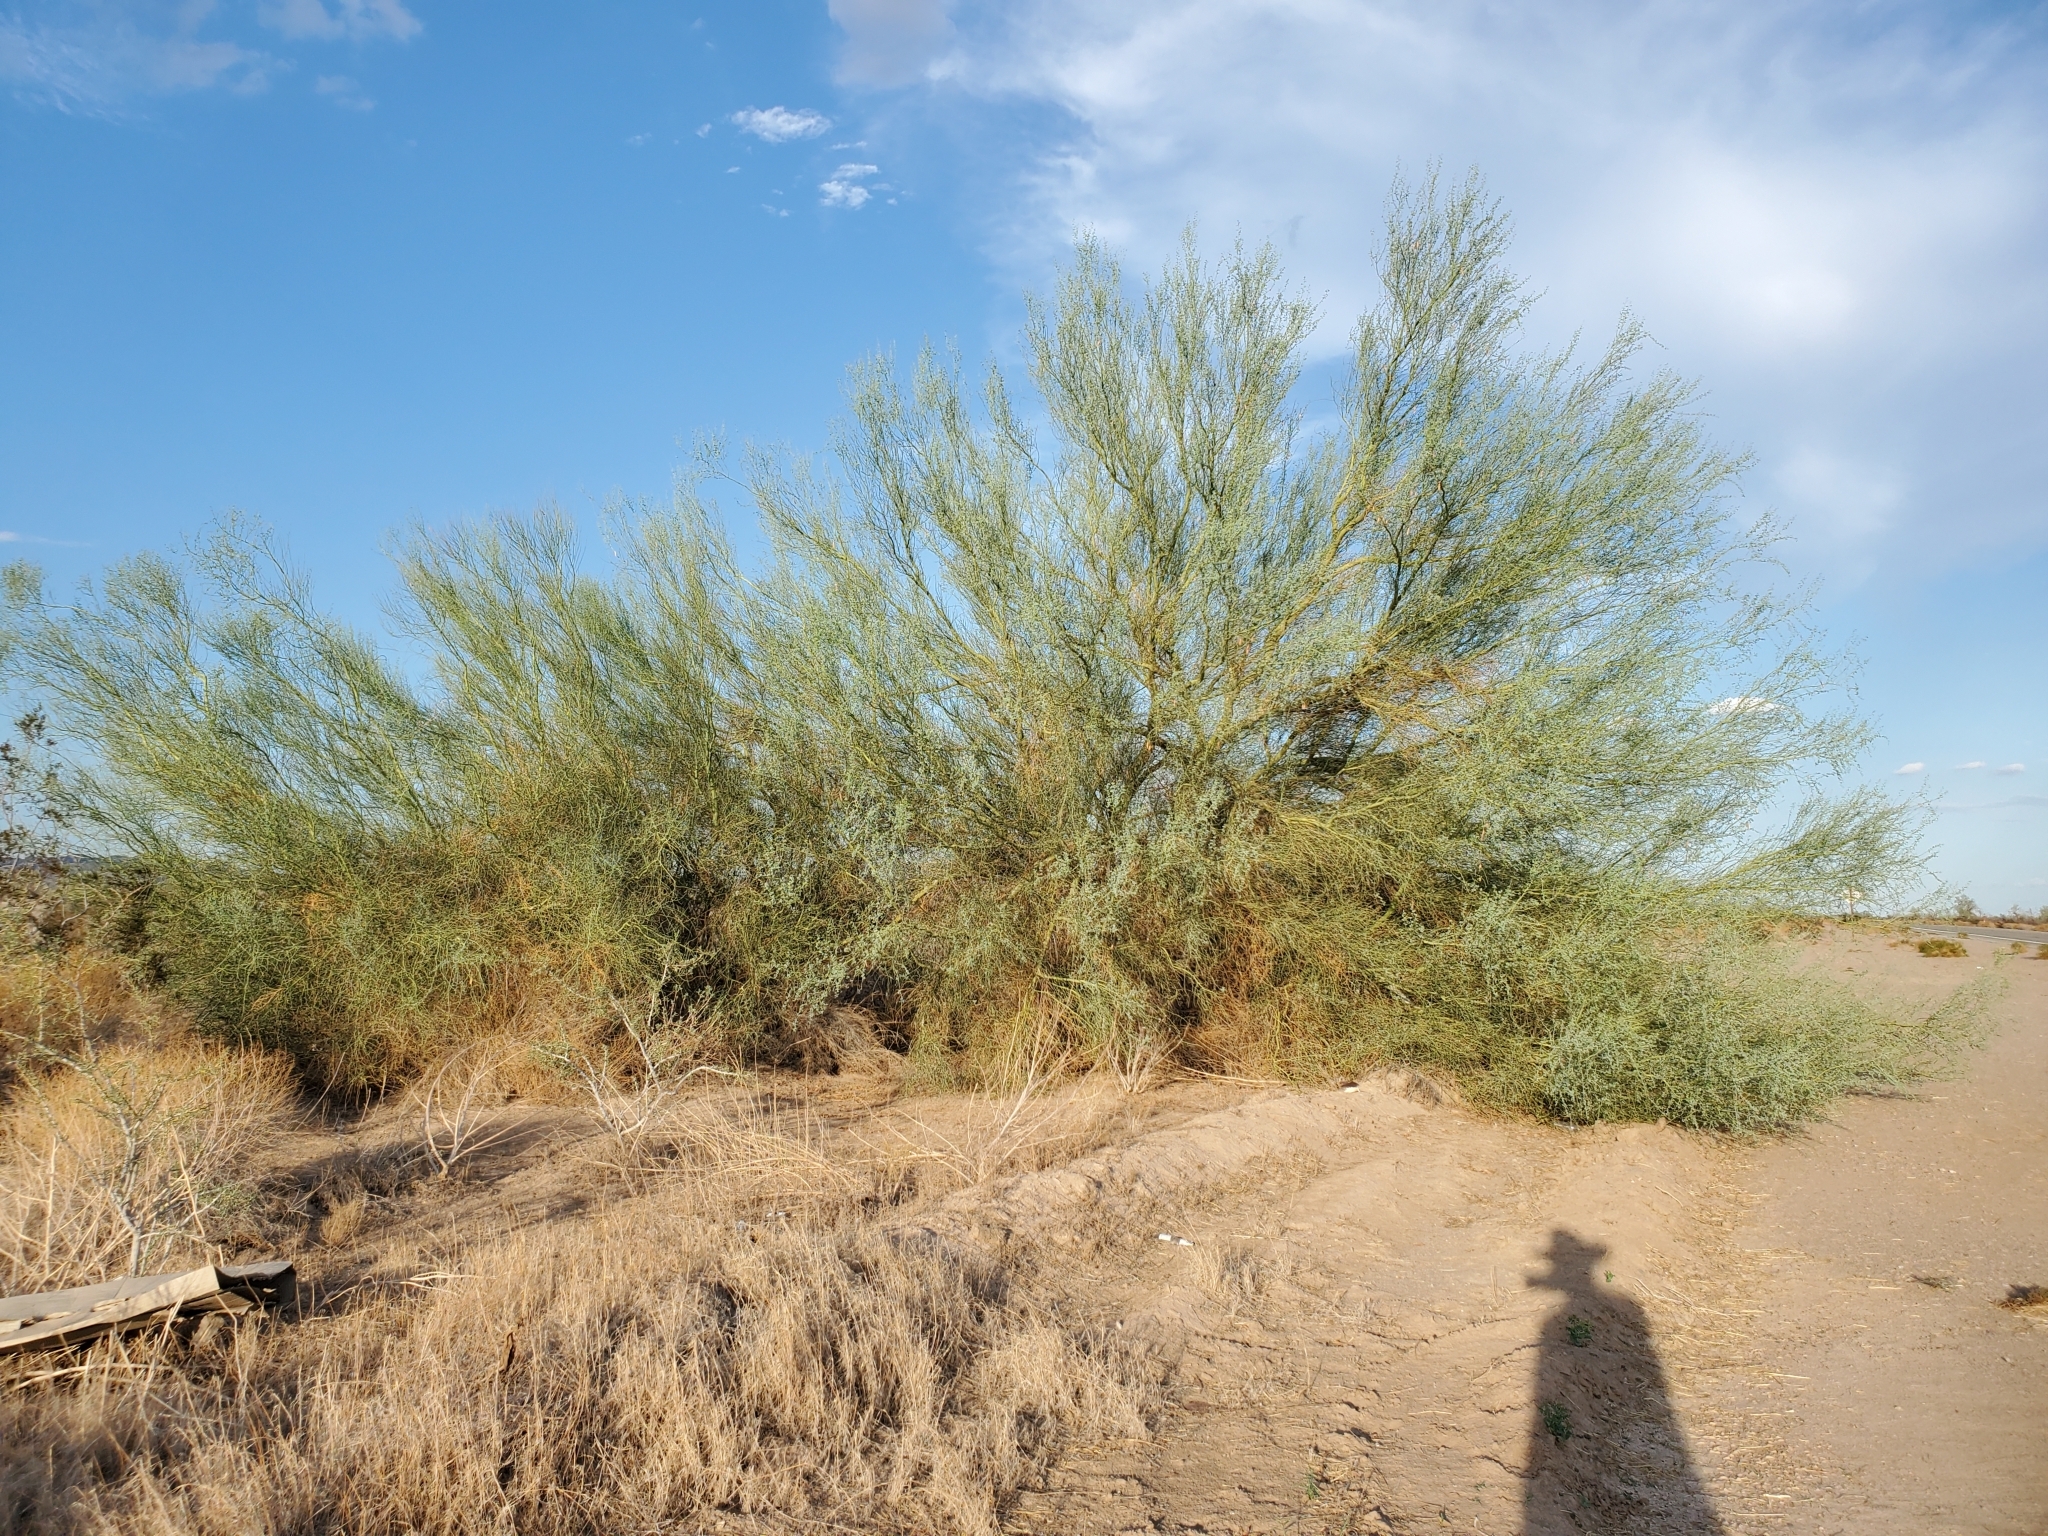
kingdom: Plantae
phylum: Tracheophyta
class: Magnoliopsida
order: Fabales
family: Fabaceae
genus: Parkinsonia
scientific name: Parkinsonia florida
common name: Blue paloverde
